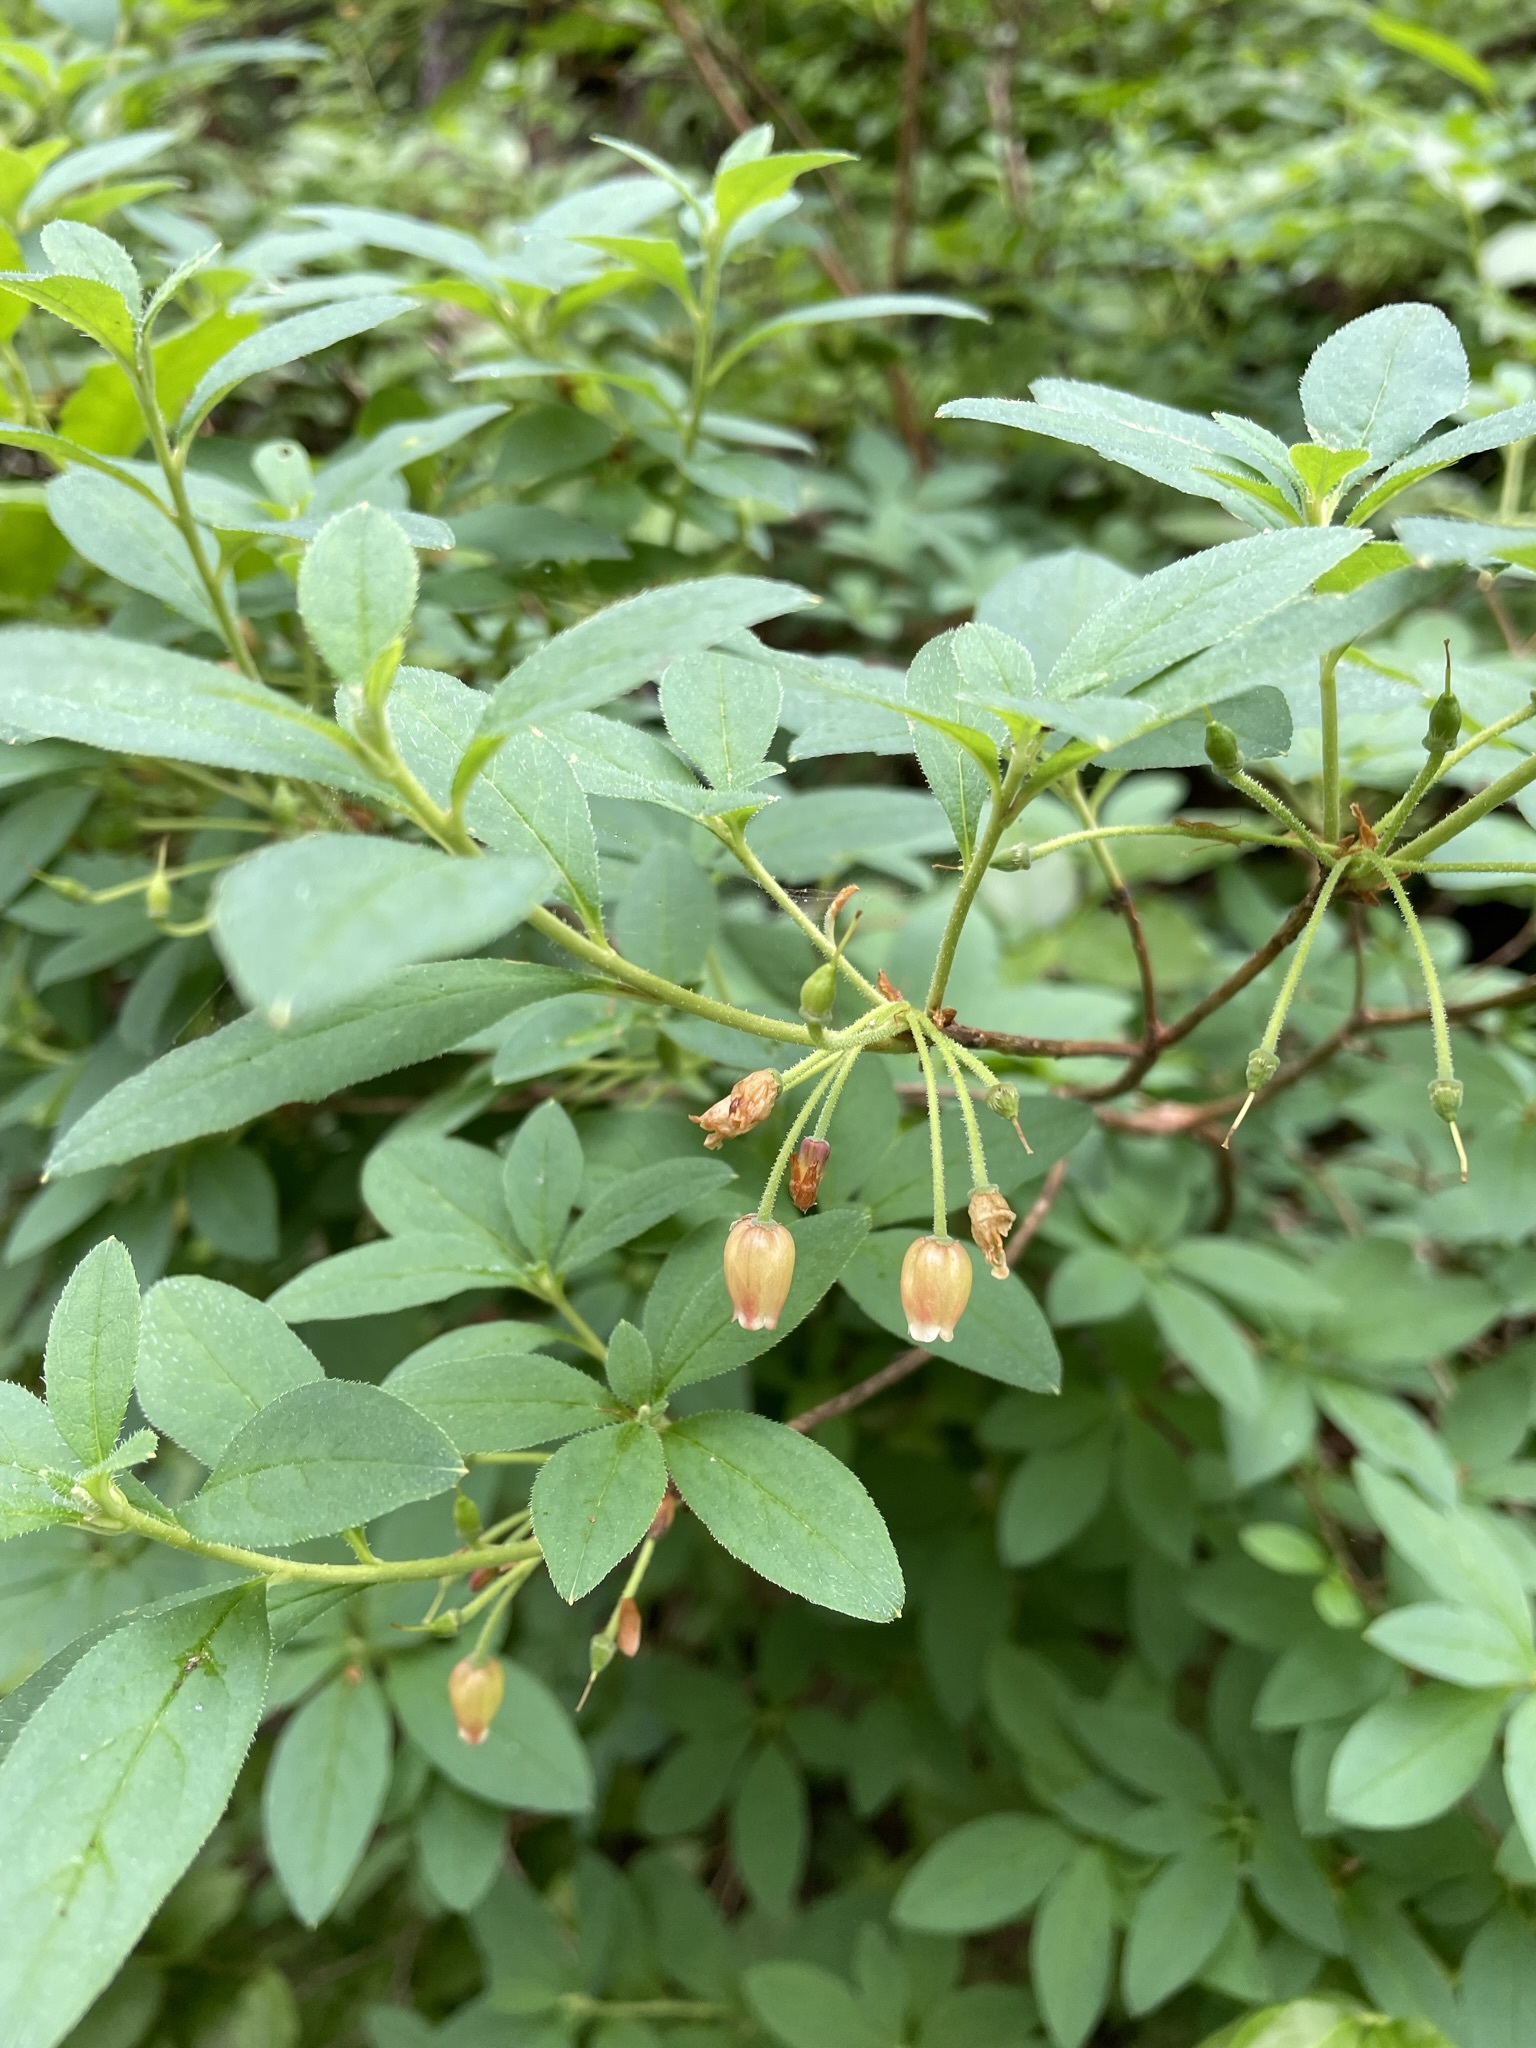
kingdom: Plantae
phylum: Tracheophyta
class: Magnoliopsida
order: Ericales
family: Ericaceae
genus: Rhododendron
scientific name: Rhododendron menziesii
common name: Pacific menziesia
